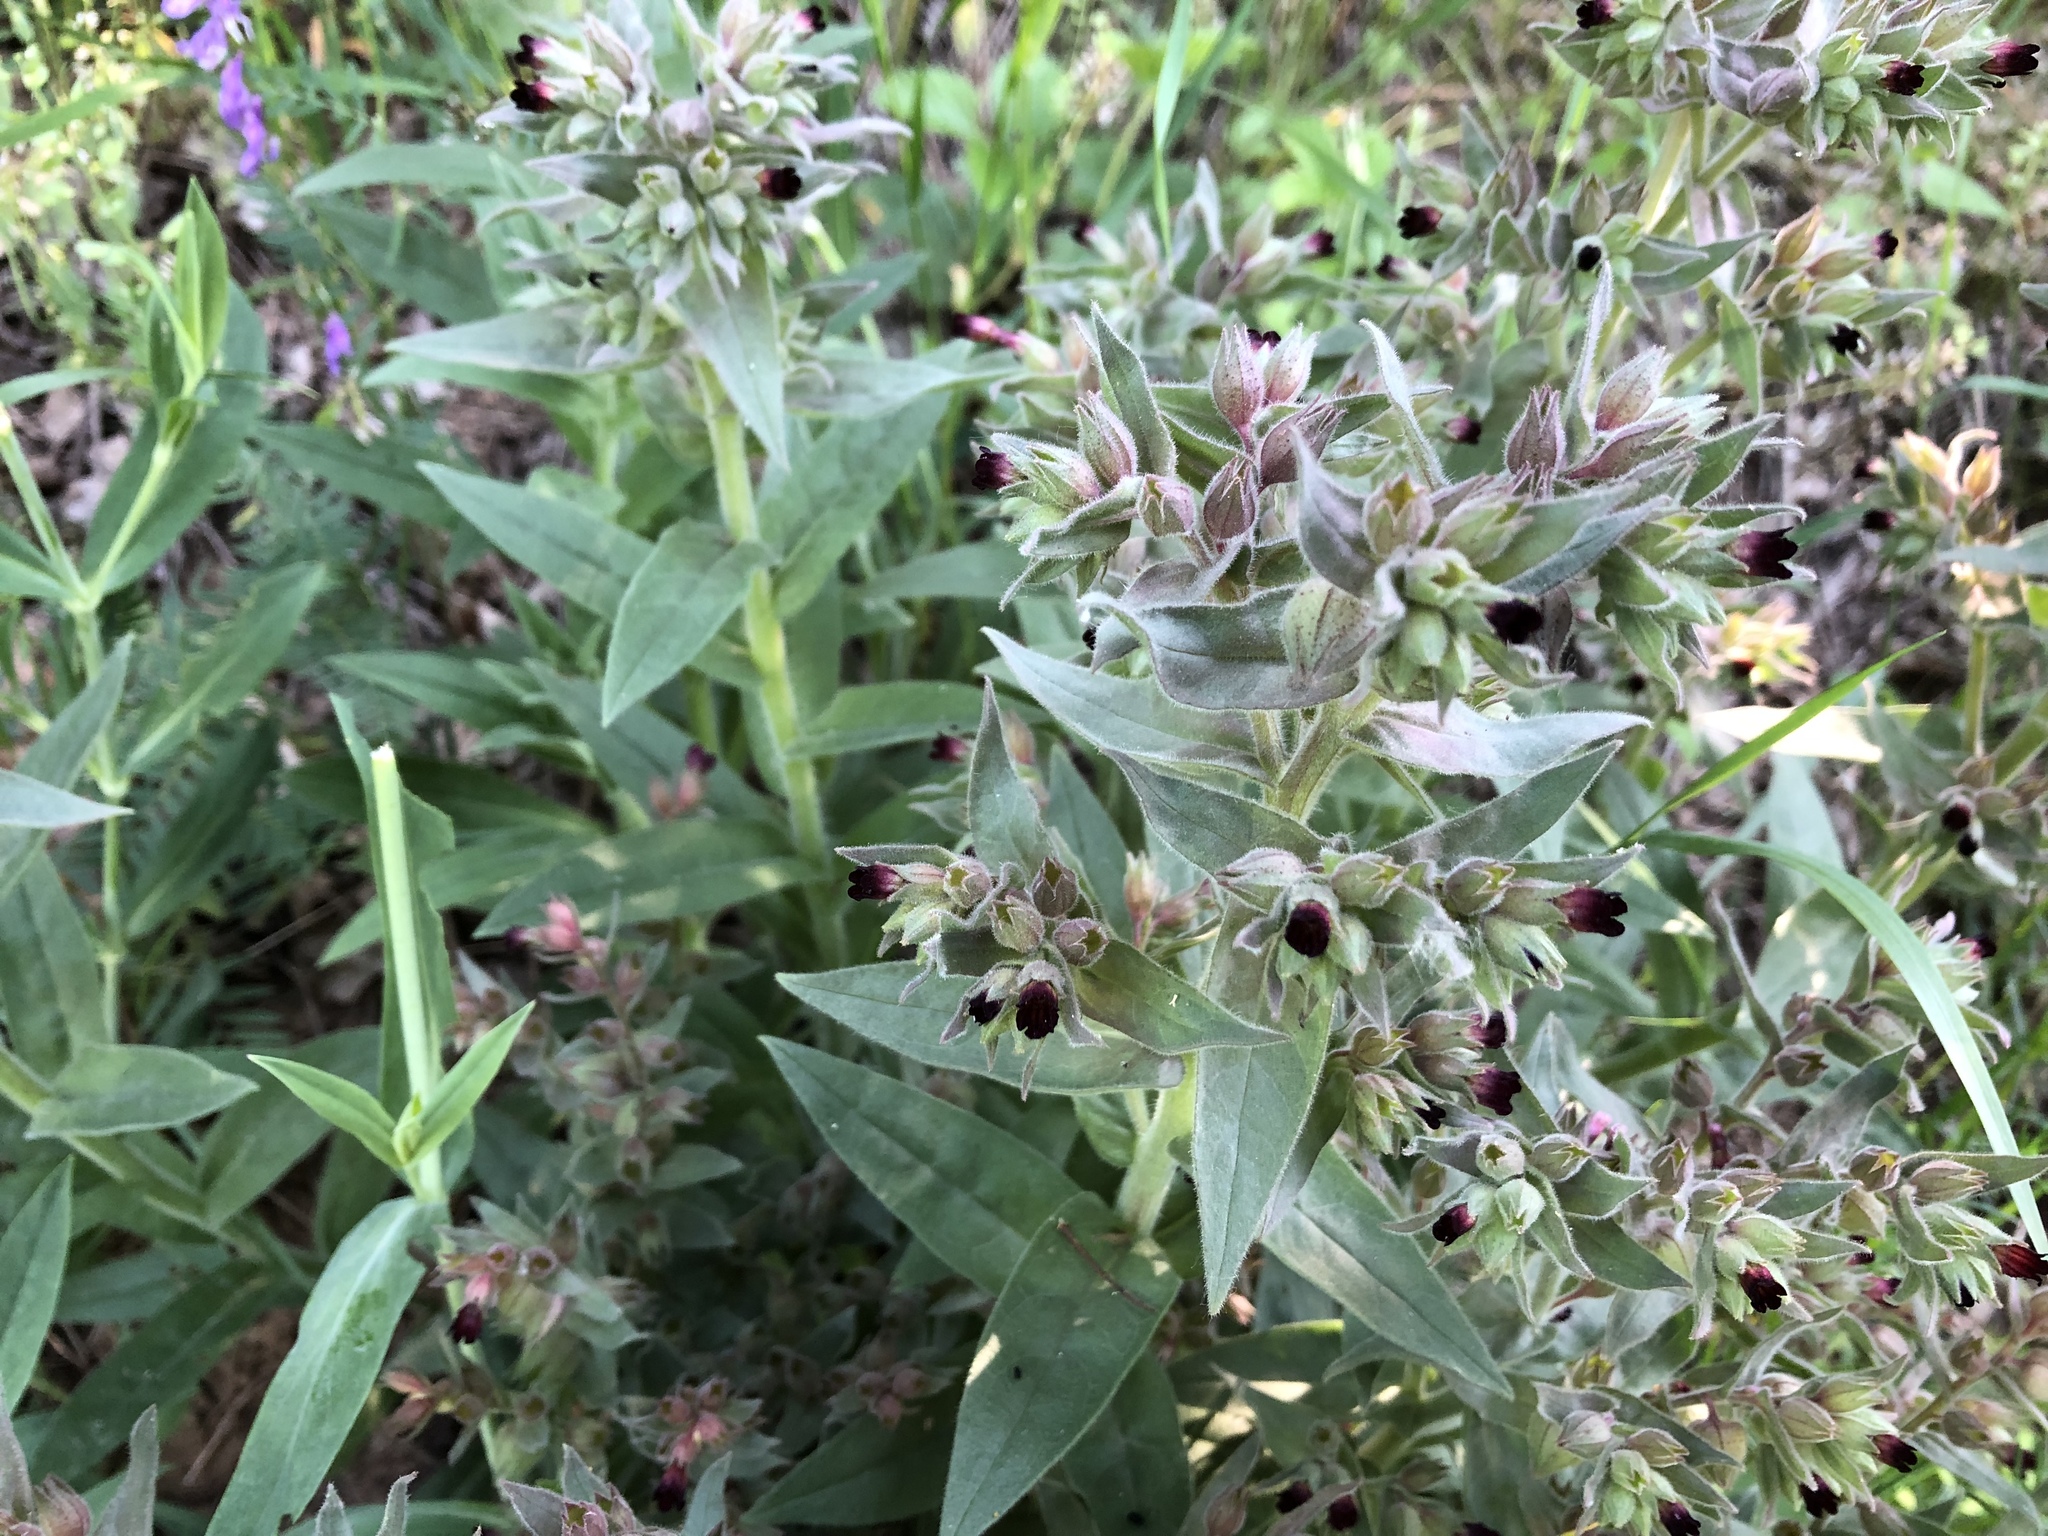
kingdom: Plantae
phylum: Tracheophyta
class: Magnoliopsida
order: Boraginales
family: Boraginaceae
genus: Nonea
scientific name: Nonea pulla
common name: Brown nonea
